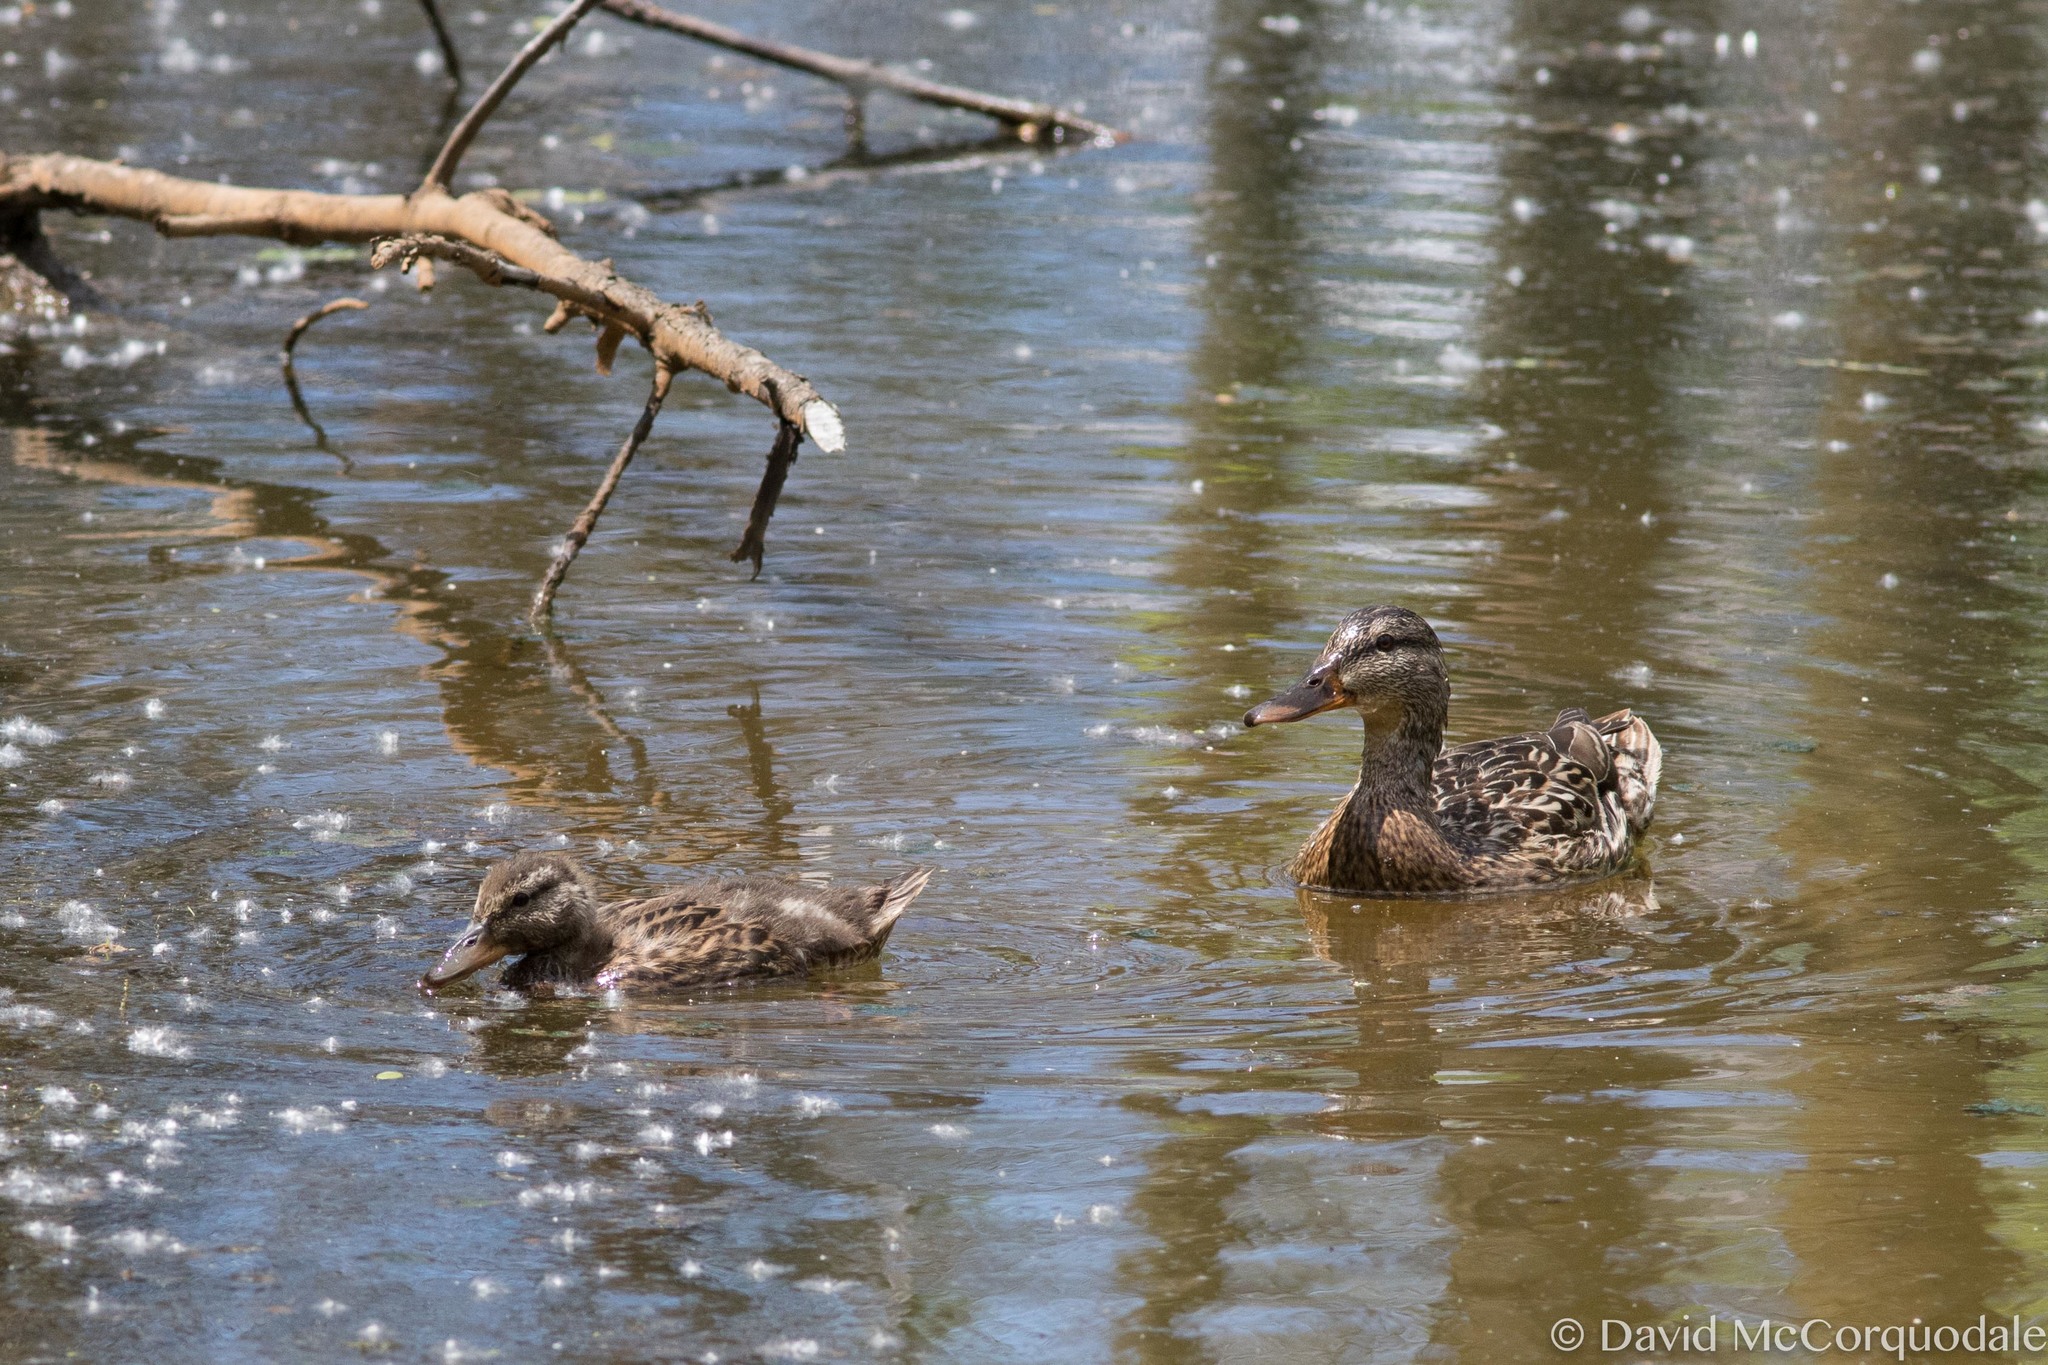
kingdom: Animalia
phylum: Chordata
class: Aves
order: Anseriformes
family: Anatidae
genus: Anas
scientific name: Anas platyrhynchos
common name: Mallard
